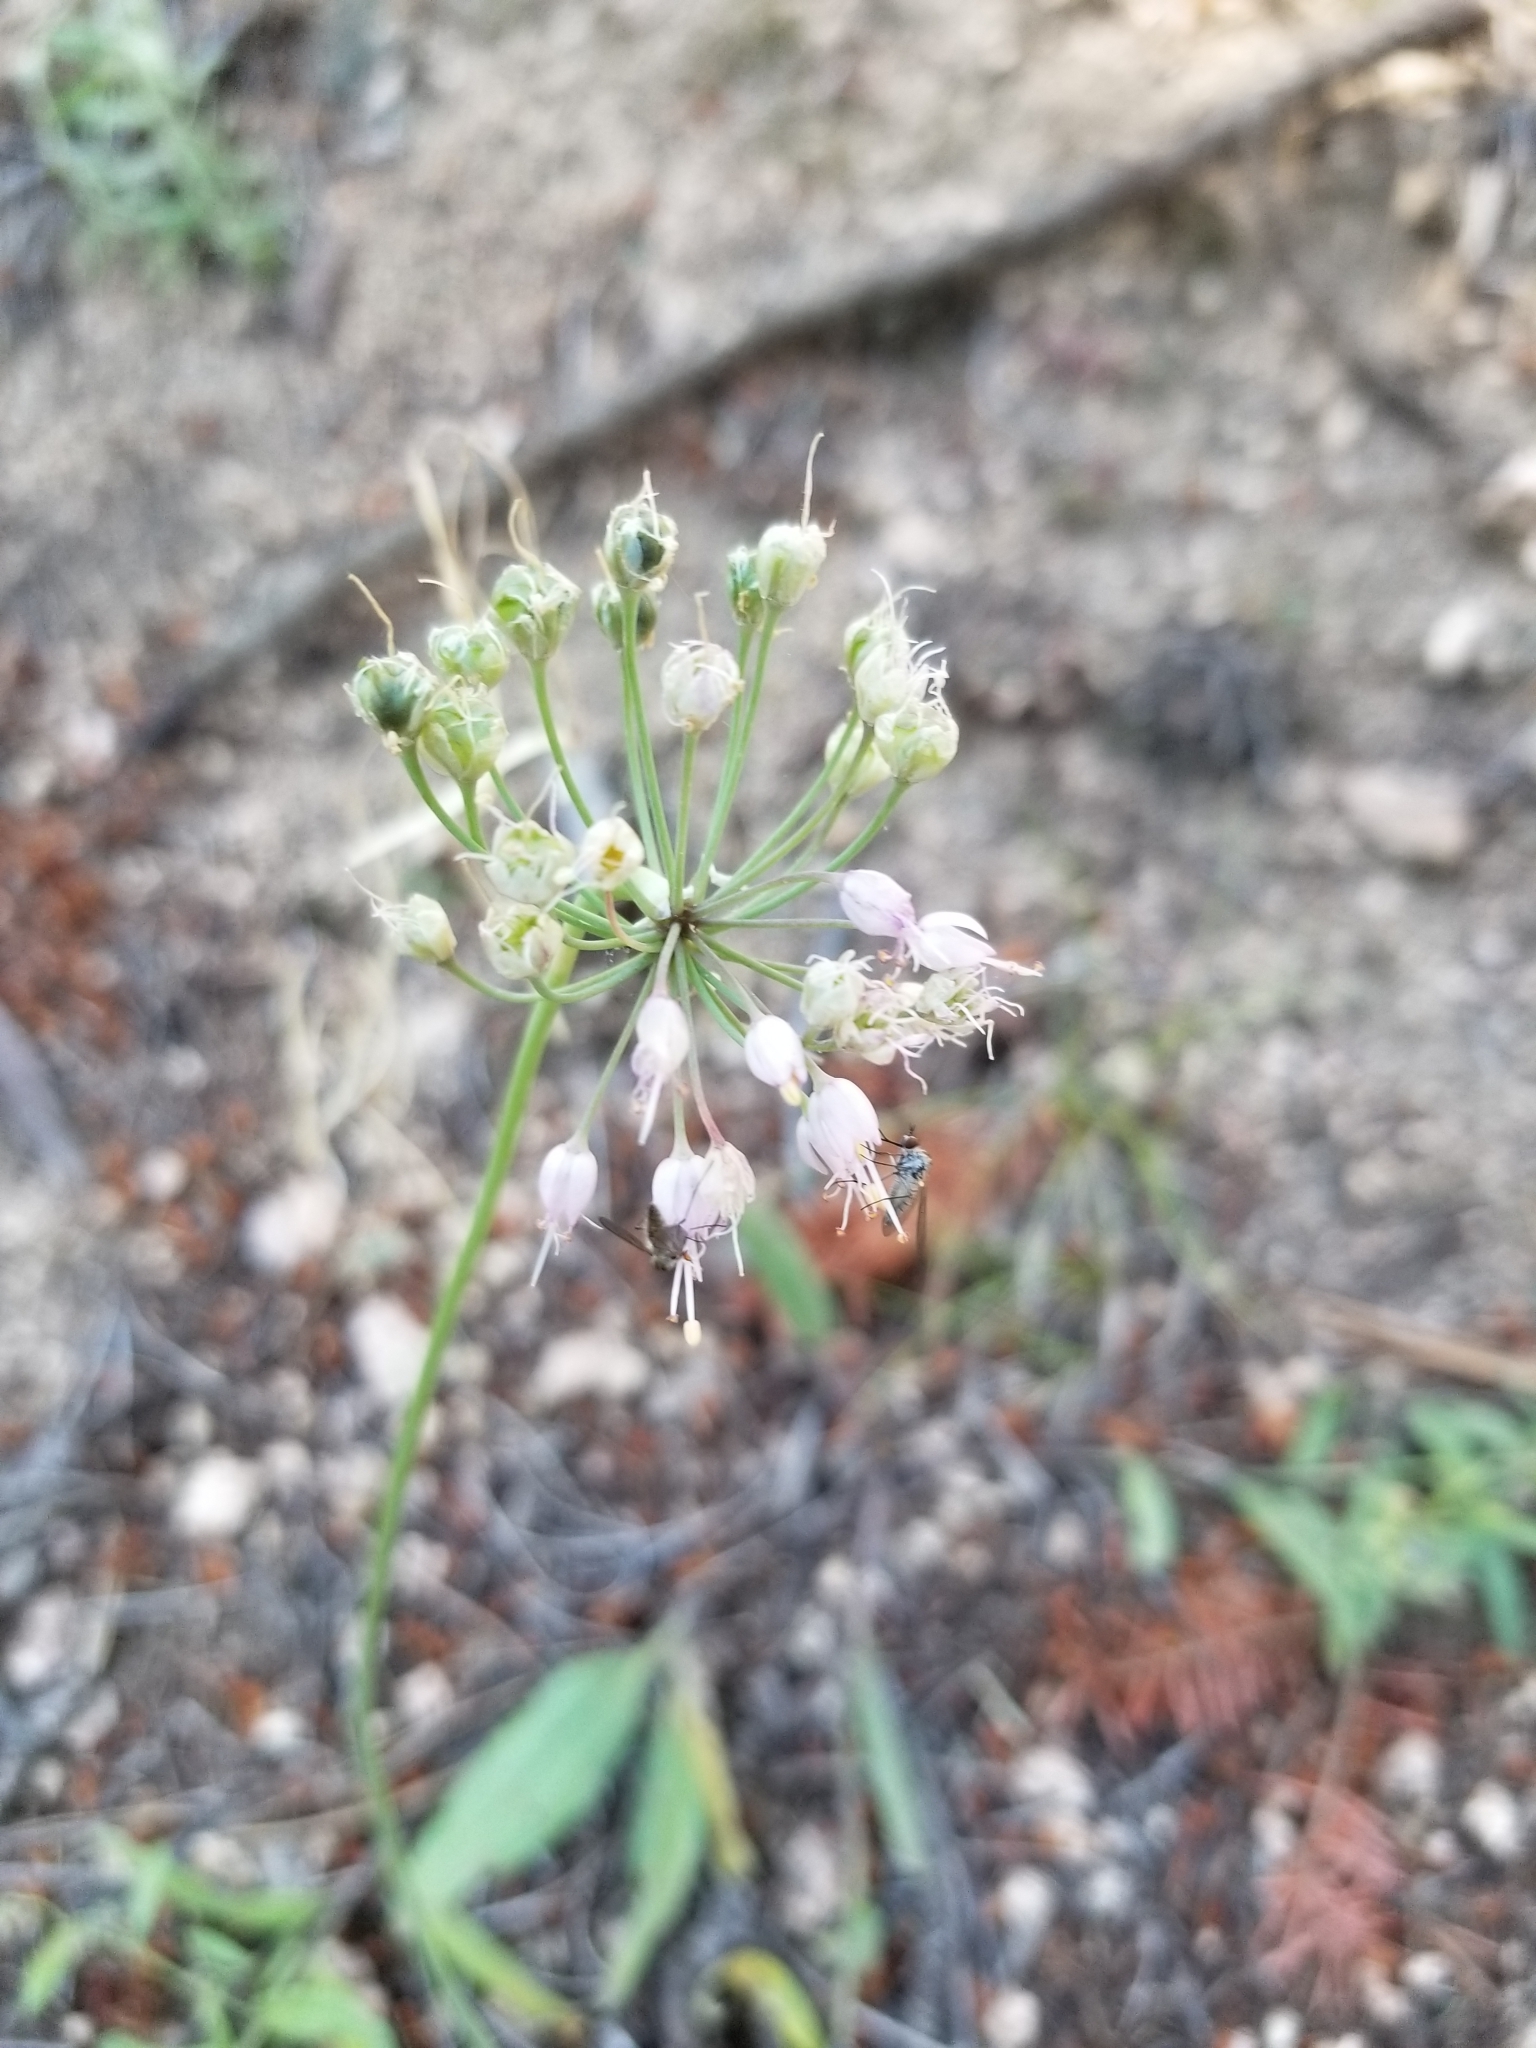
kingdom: Plantae
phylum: Tracheophyta
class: Liliopsida
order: Asparagales
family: Amaryllidaceae
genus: Allium
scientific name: Allium cernuum
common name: Nodding onion
